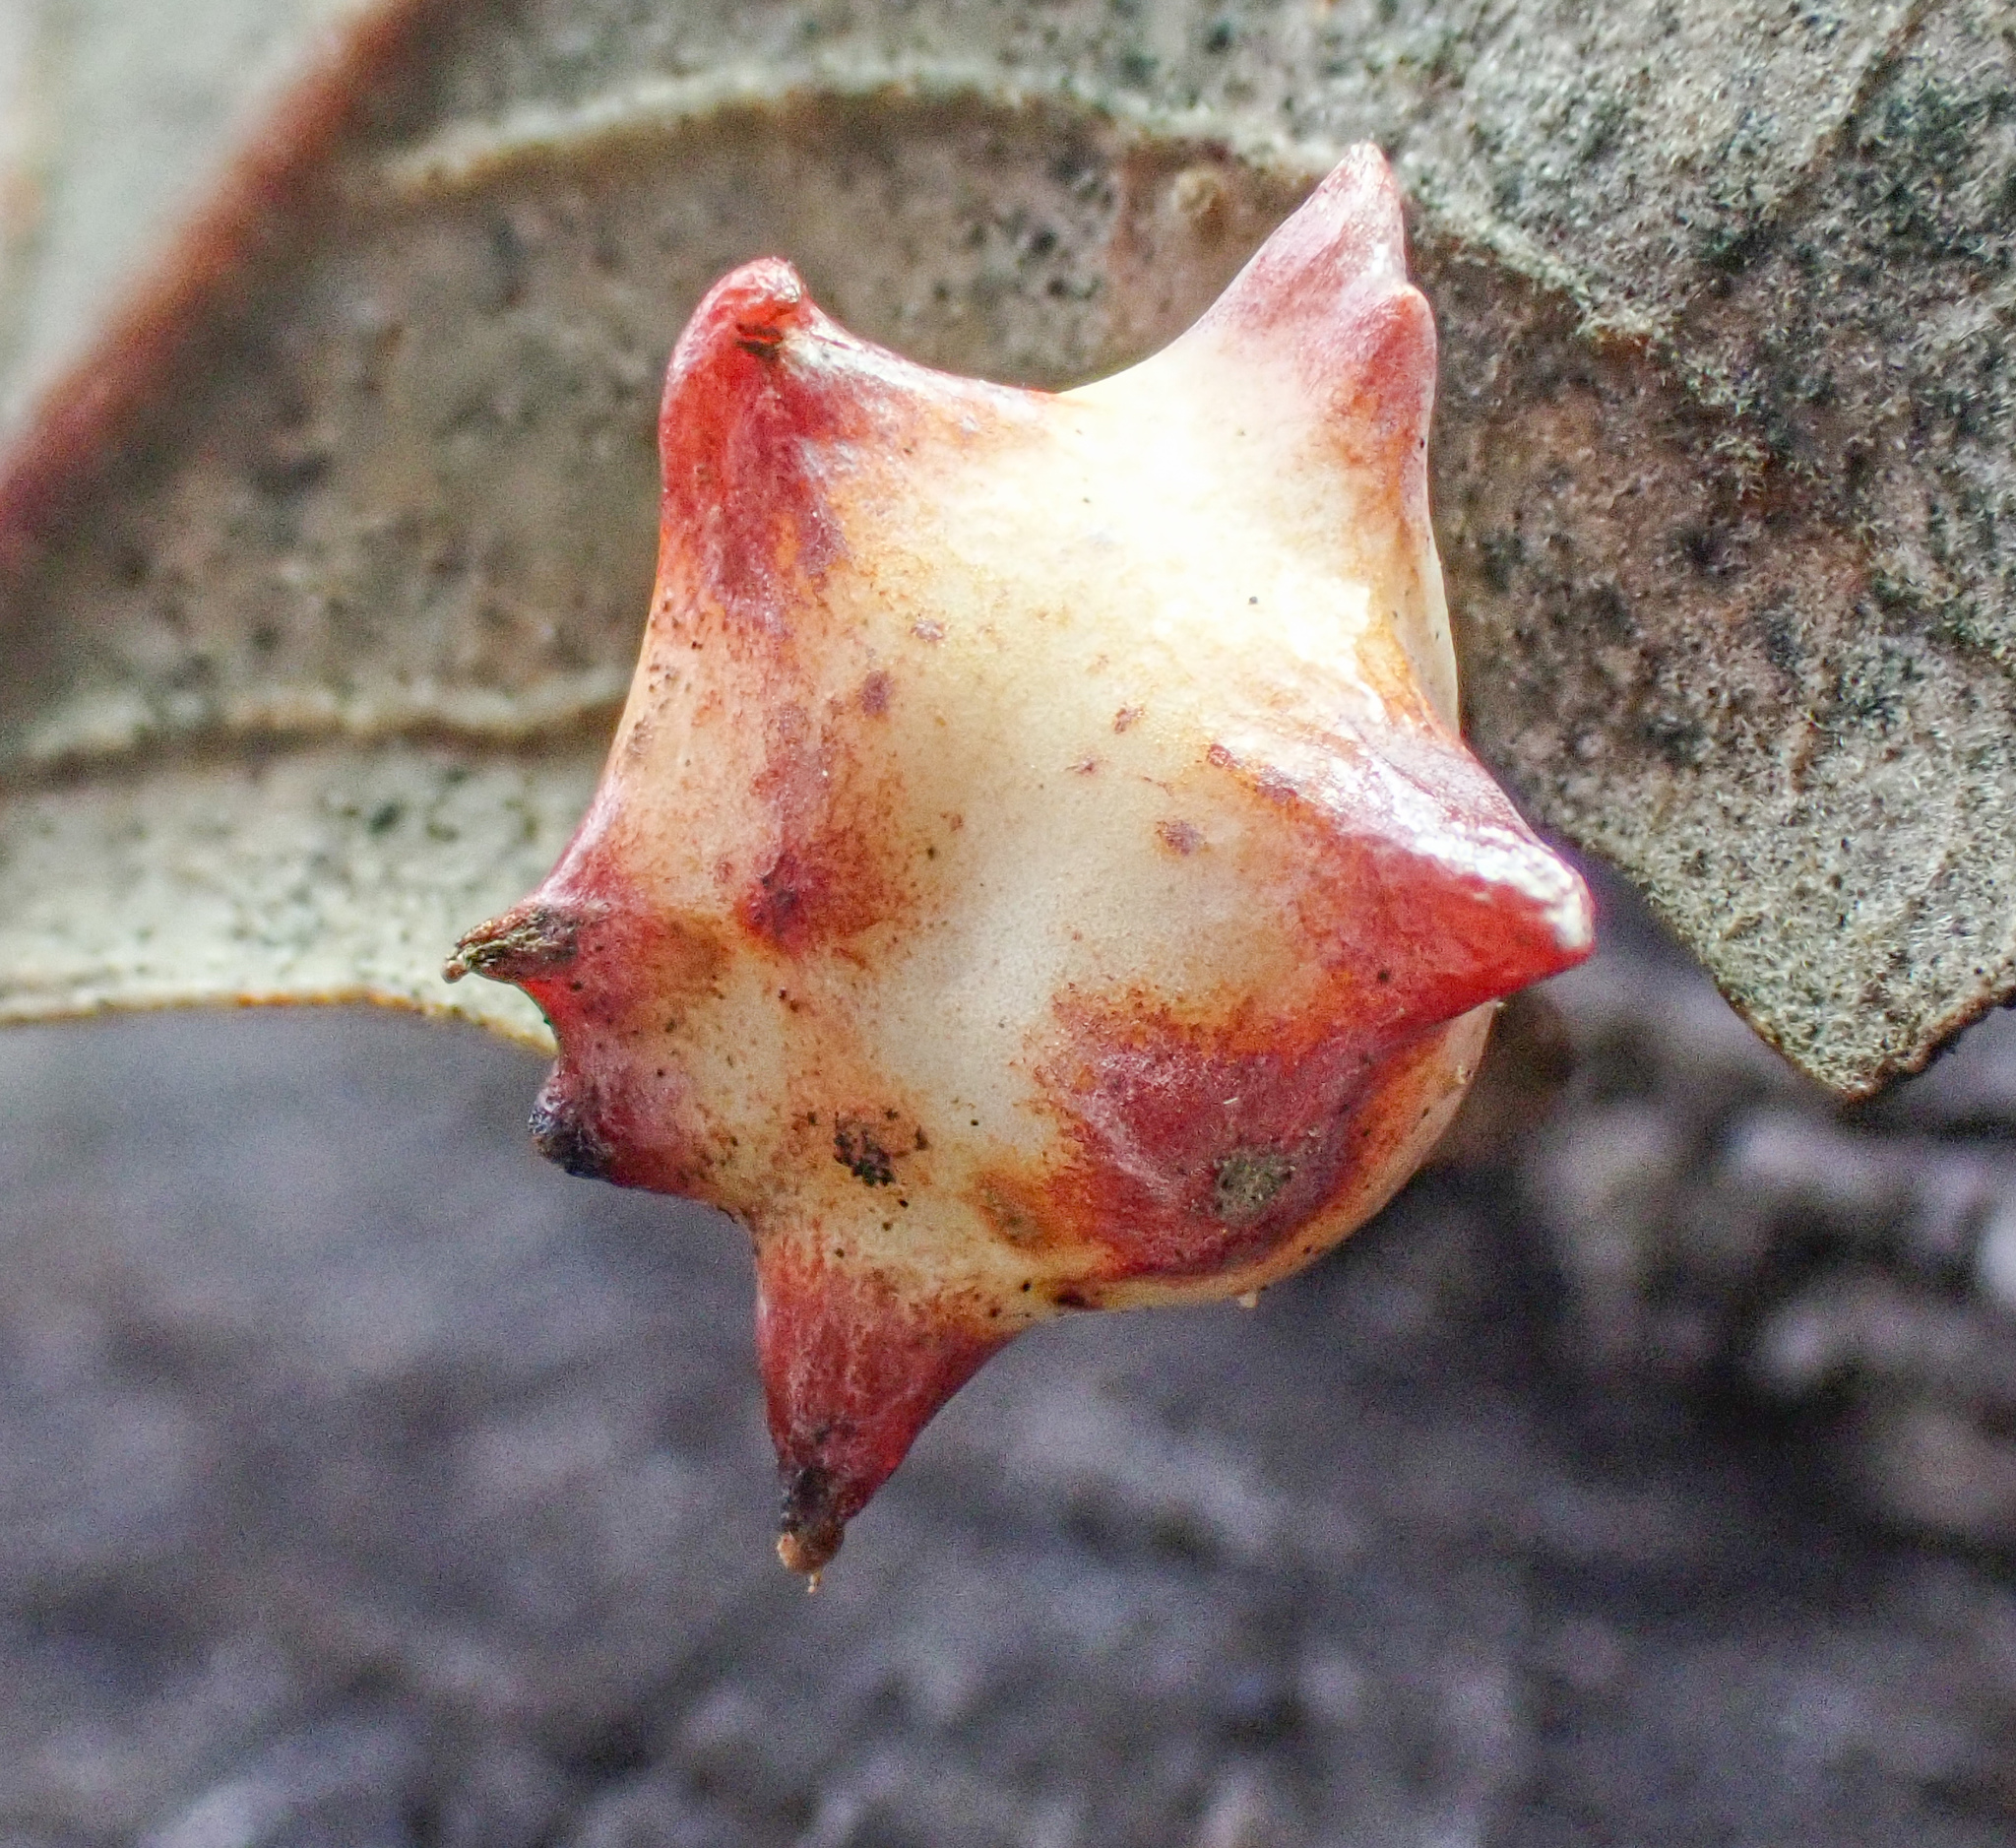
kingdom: Animalia
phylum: Arthropoda
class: Insecta
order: Hymenoptera
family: Cynipidae
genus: Cynips
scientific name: Cynips douglasi
